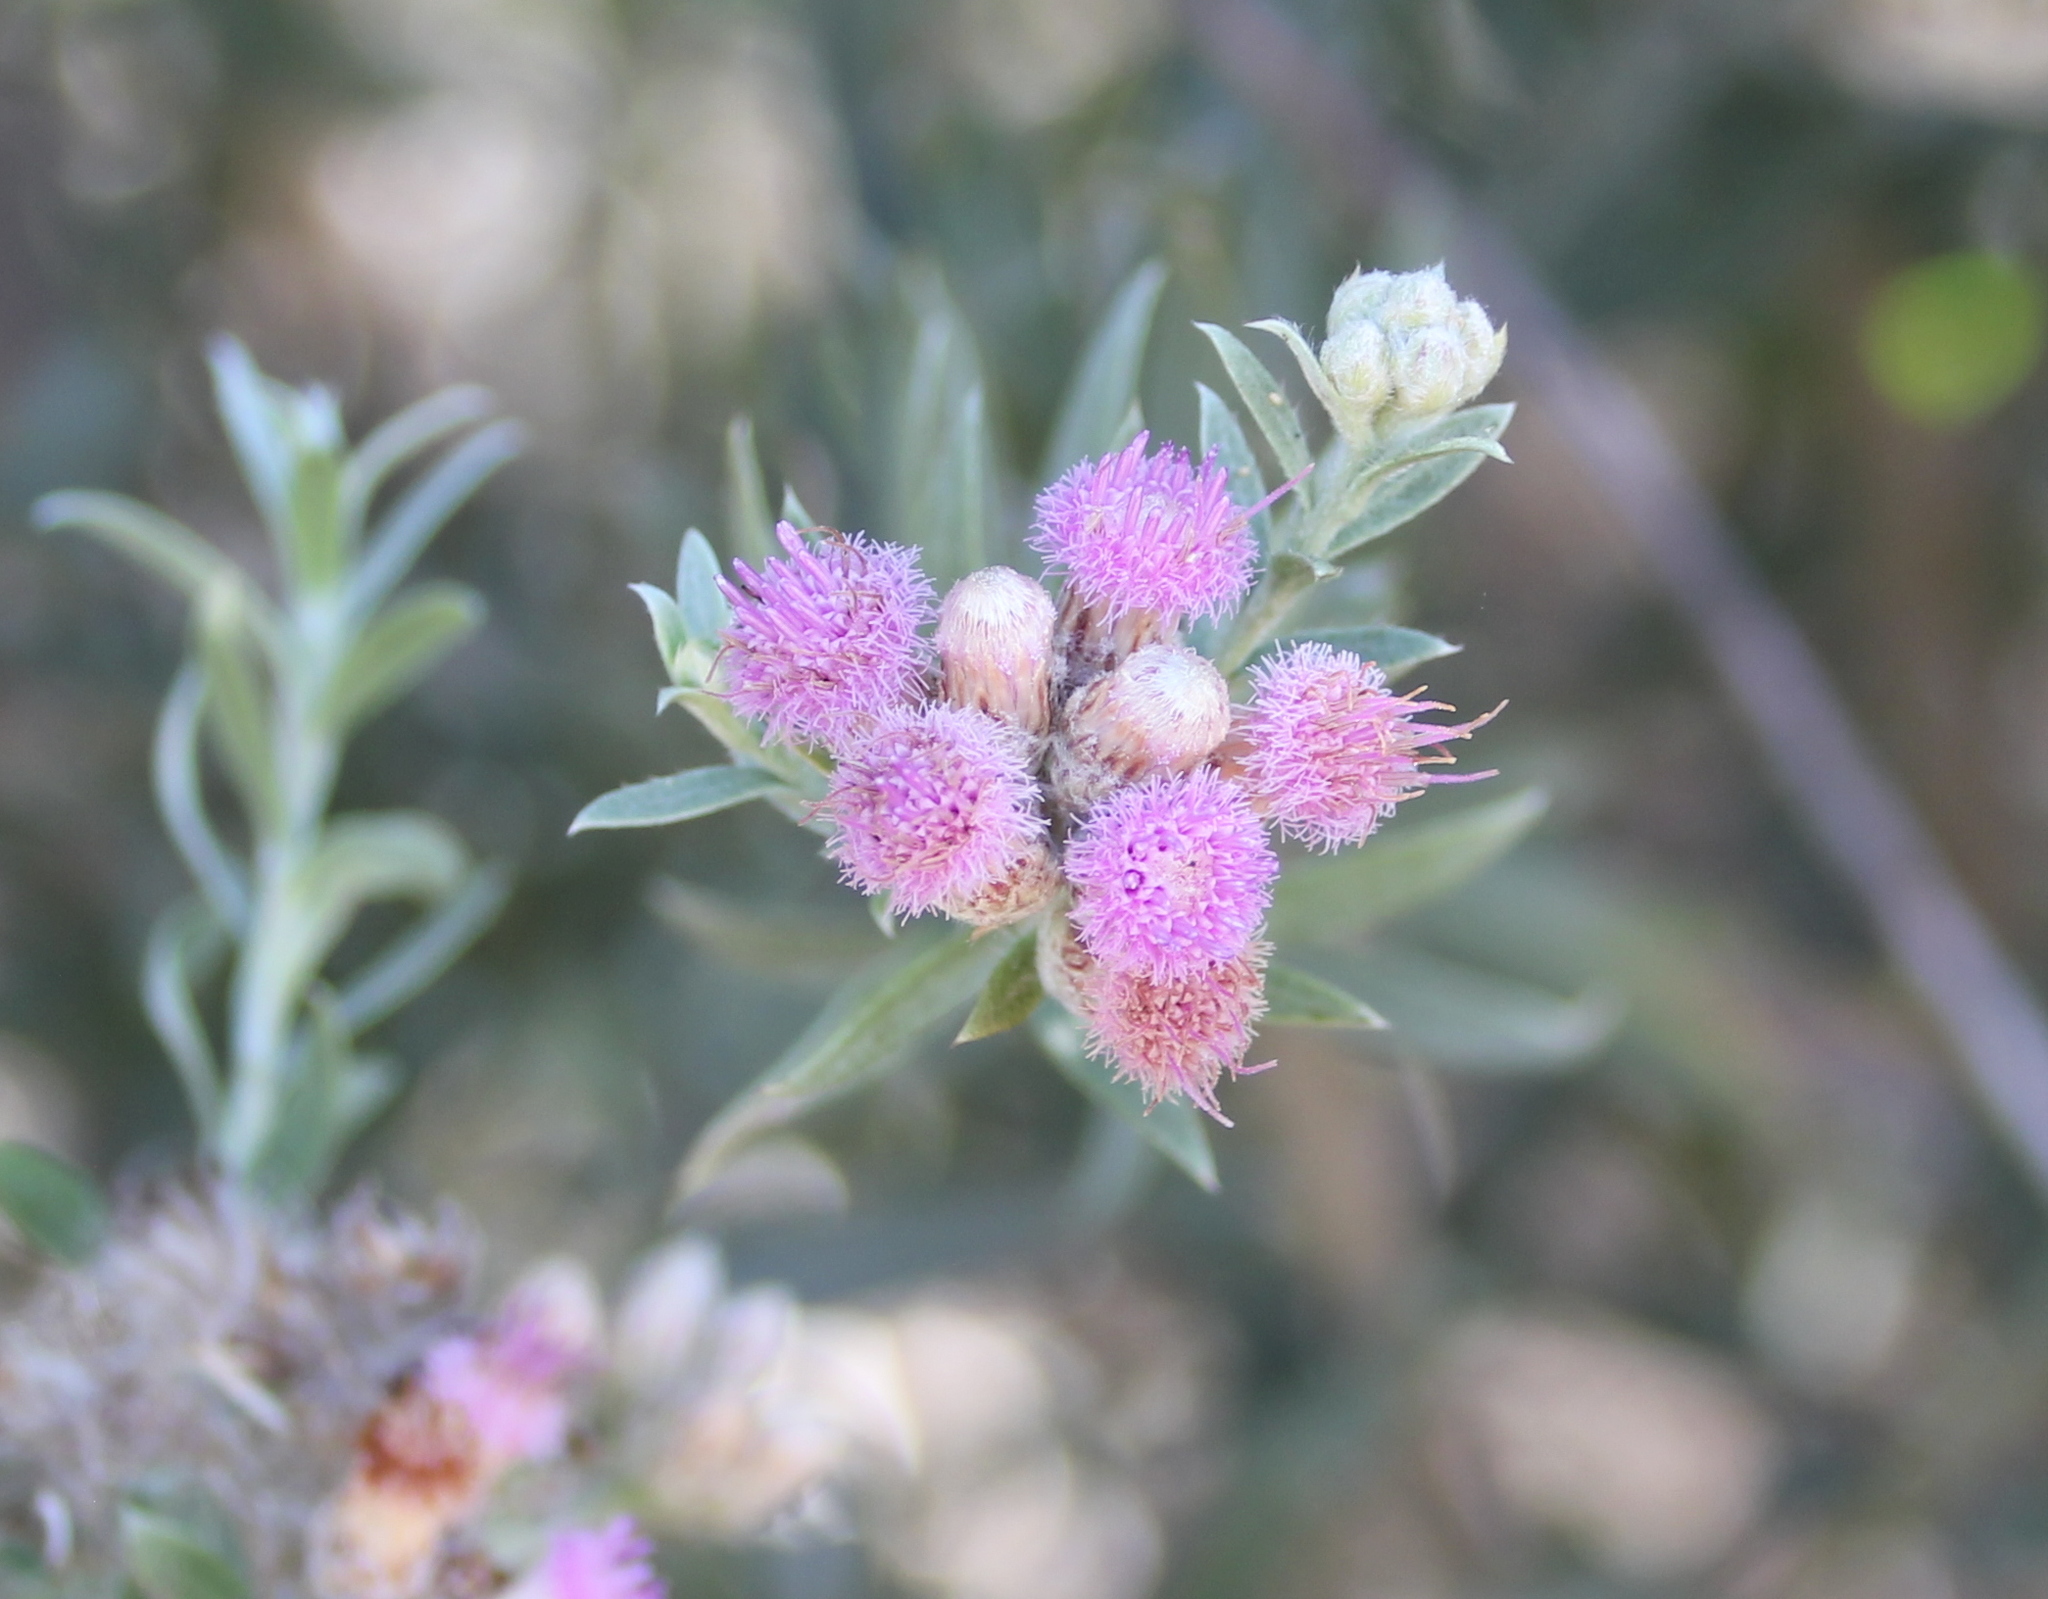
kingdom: Plantae
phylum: Tracheophyta
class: Magnoliopsida
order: Asterales
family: Asteraceae
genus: Pluchea
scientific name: Pluchea sericea
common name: Arrow-weed
